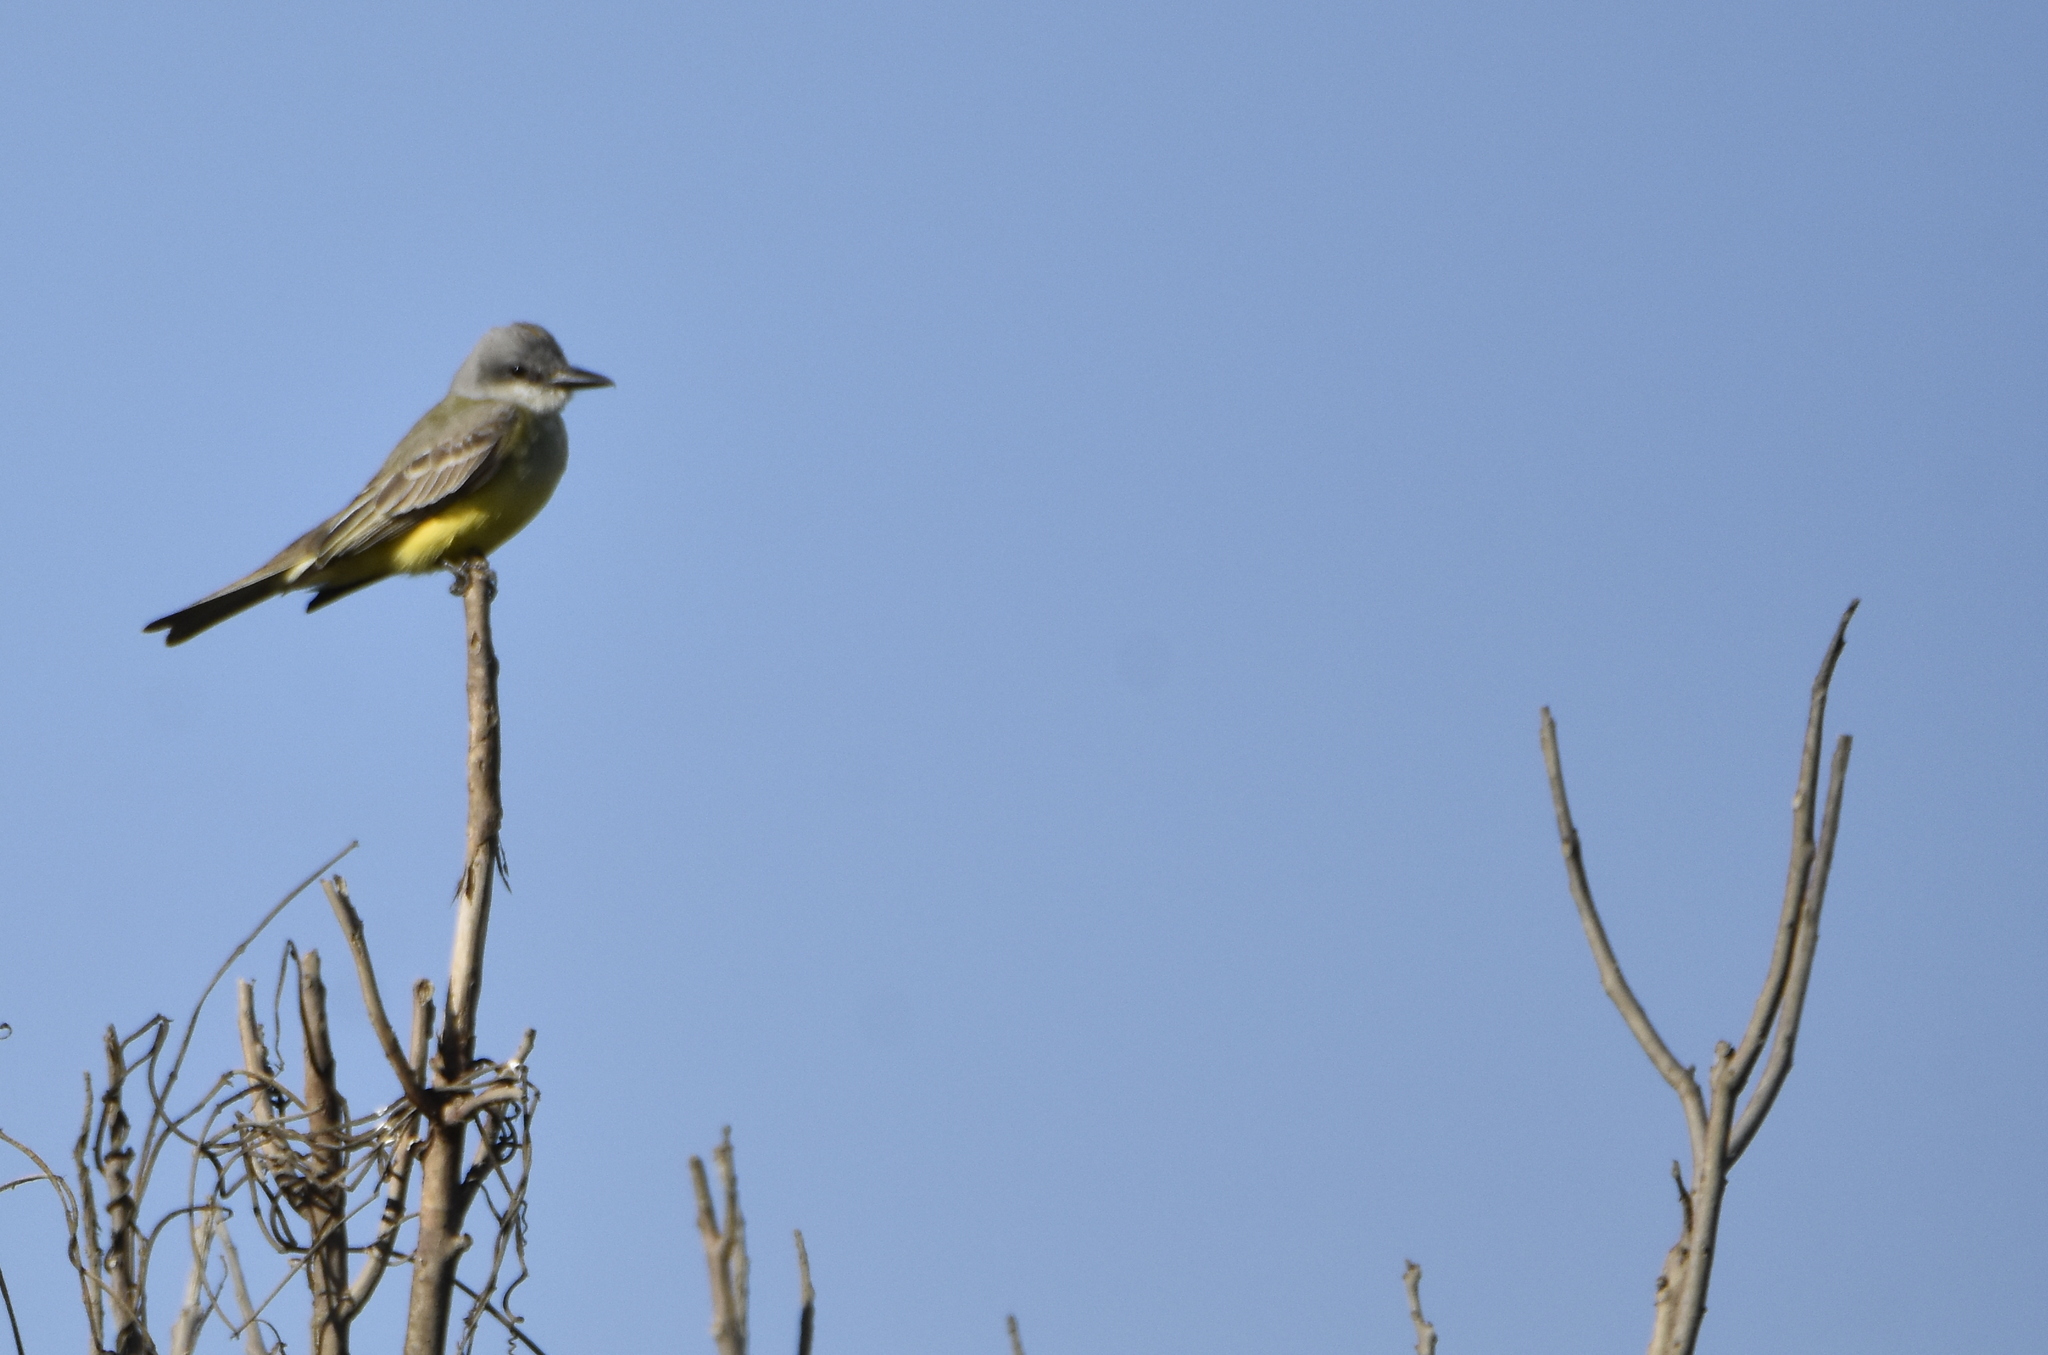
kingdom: Animalia
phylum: Chordata
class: Aves
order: Passeriformes
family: Tyrannidae
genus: Tyrannus
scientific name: Tyrannus melancholicus
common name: Tropical kingbird
